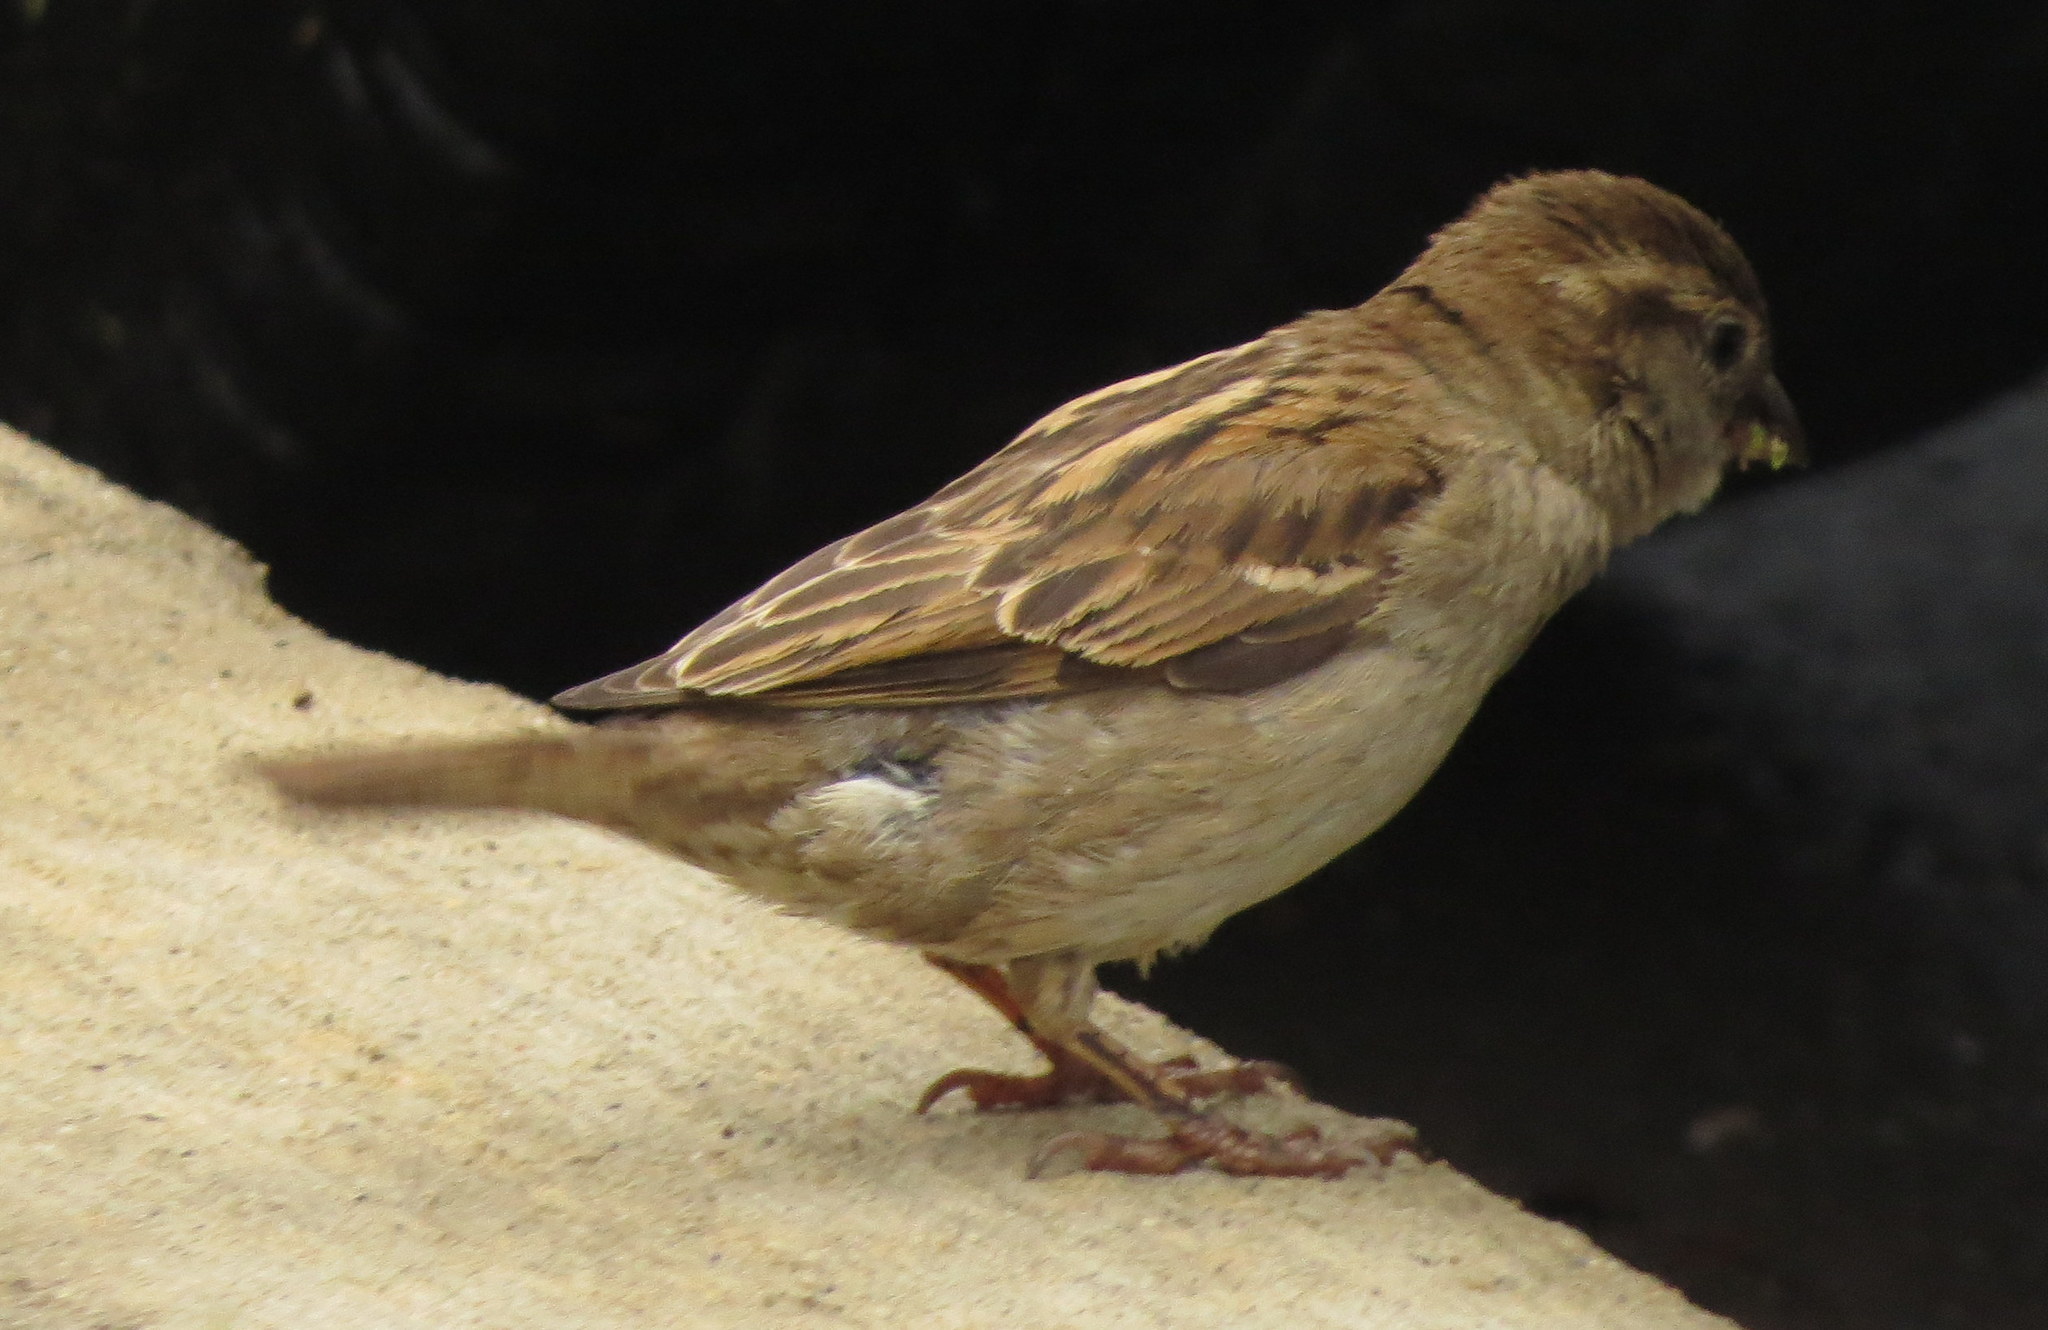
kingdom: Animalia
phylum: Chordata
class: Aves
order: Passeriformes
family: Passeridae
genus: Passer
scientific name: Passer domesticus
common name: House sparrow
